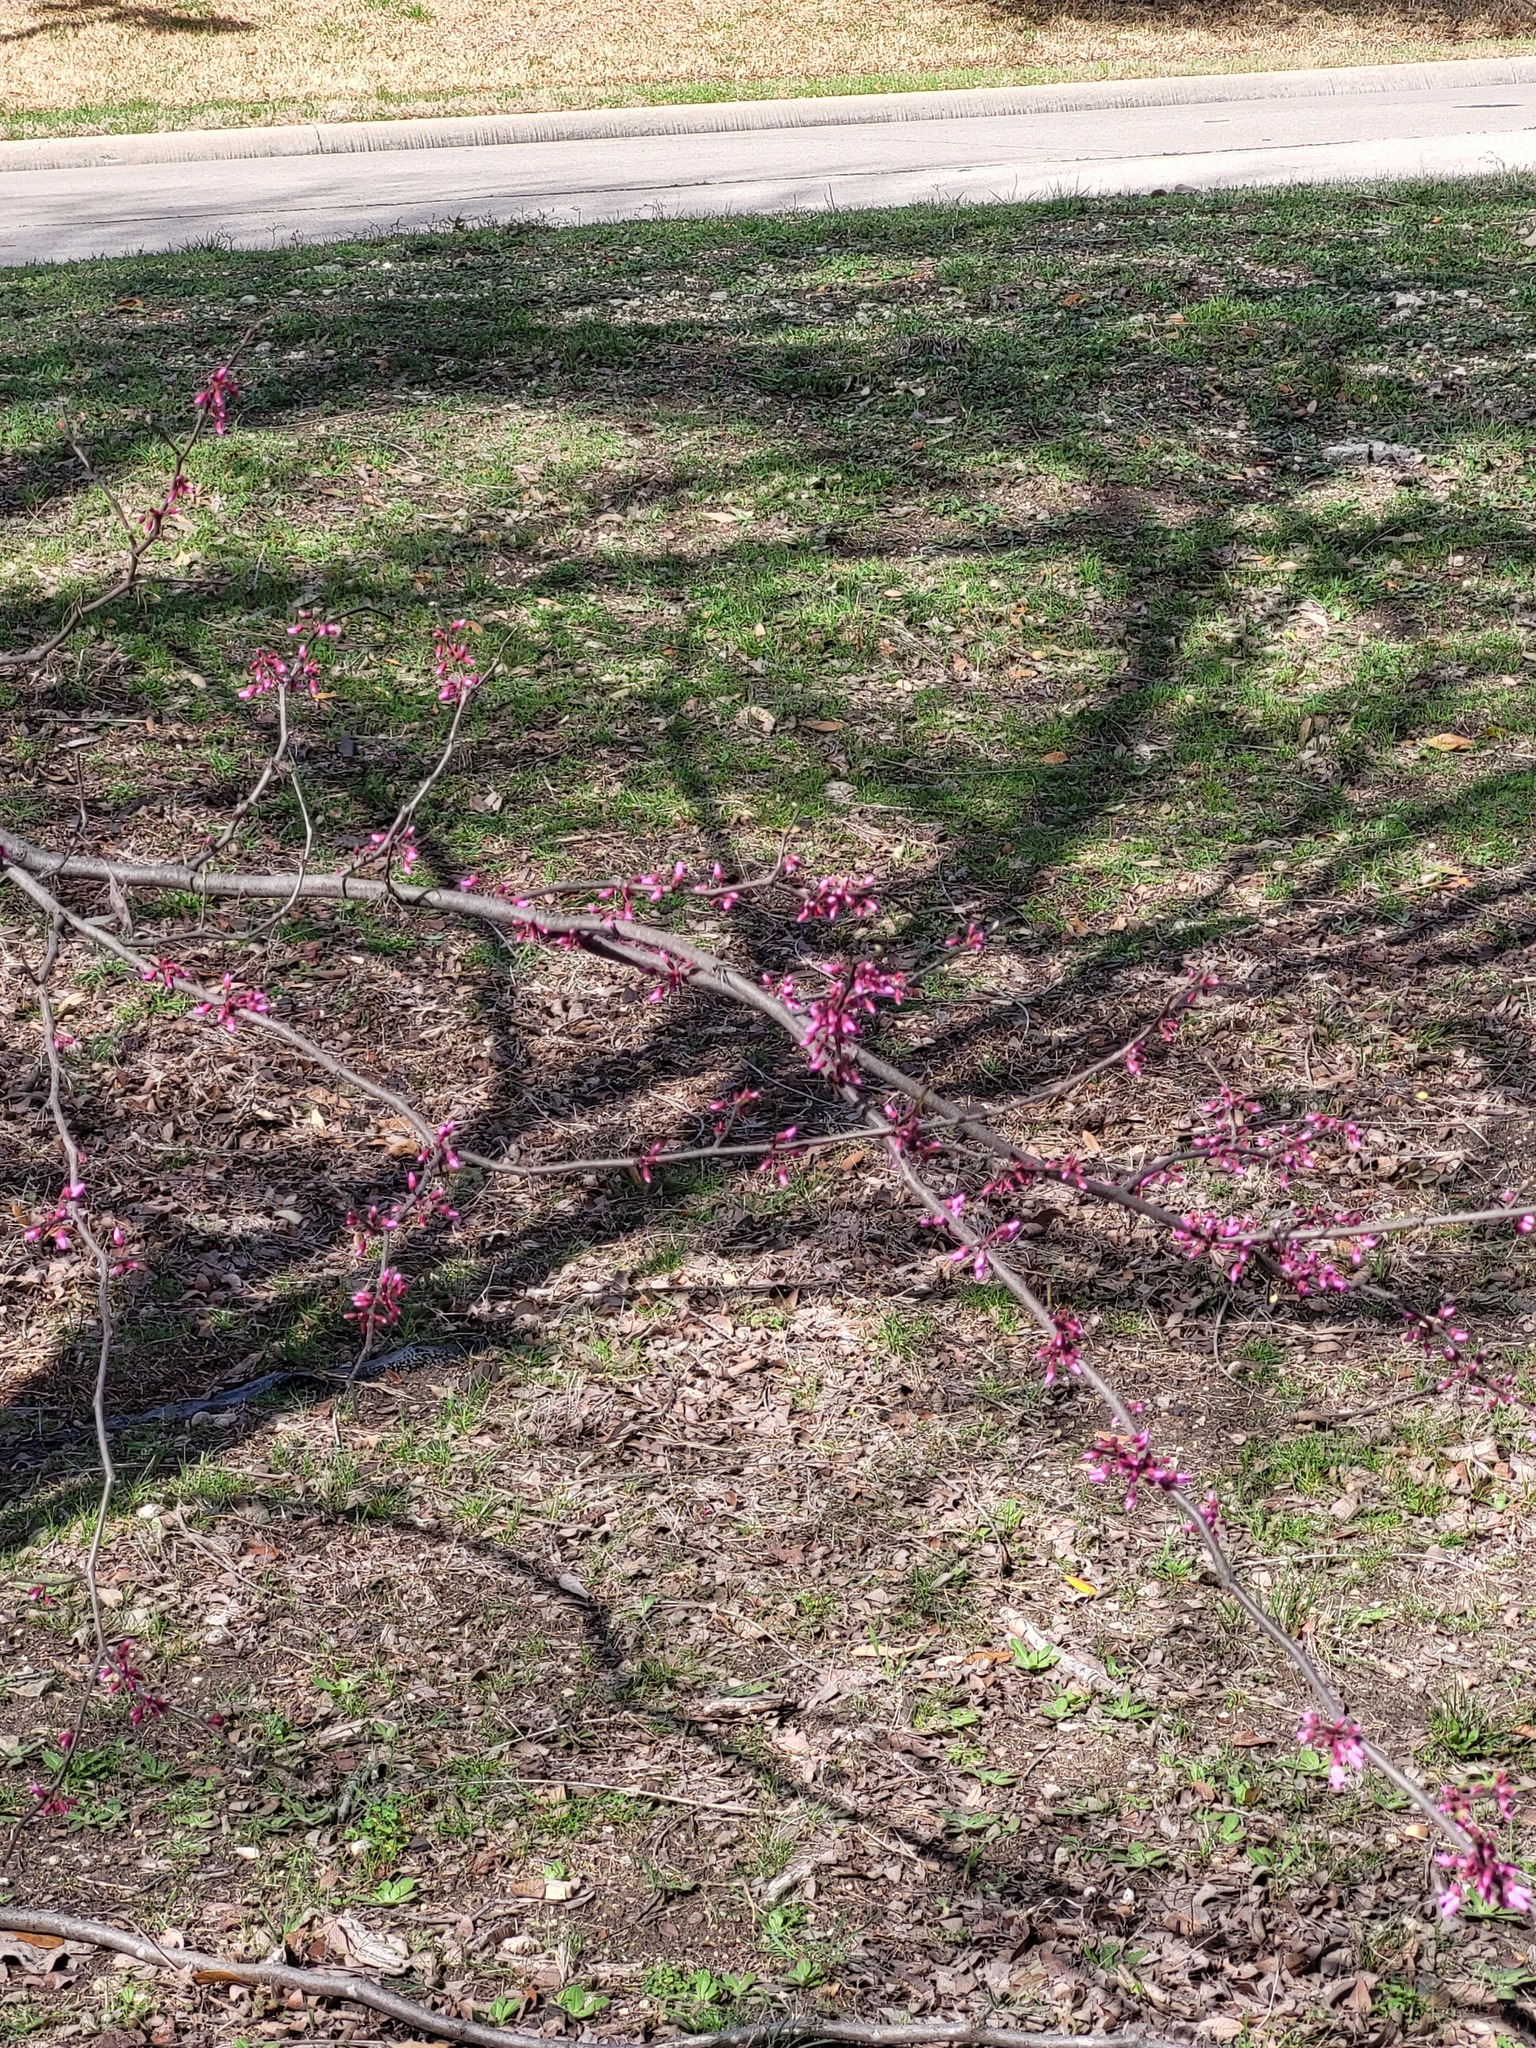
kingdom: Plantae
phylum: Tracheophyta
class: Magnoliopsida
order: Fabales
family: Fabaceae
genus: Cercis
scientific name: Cercis canadensis
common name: Eastern redbud
